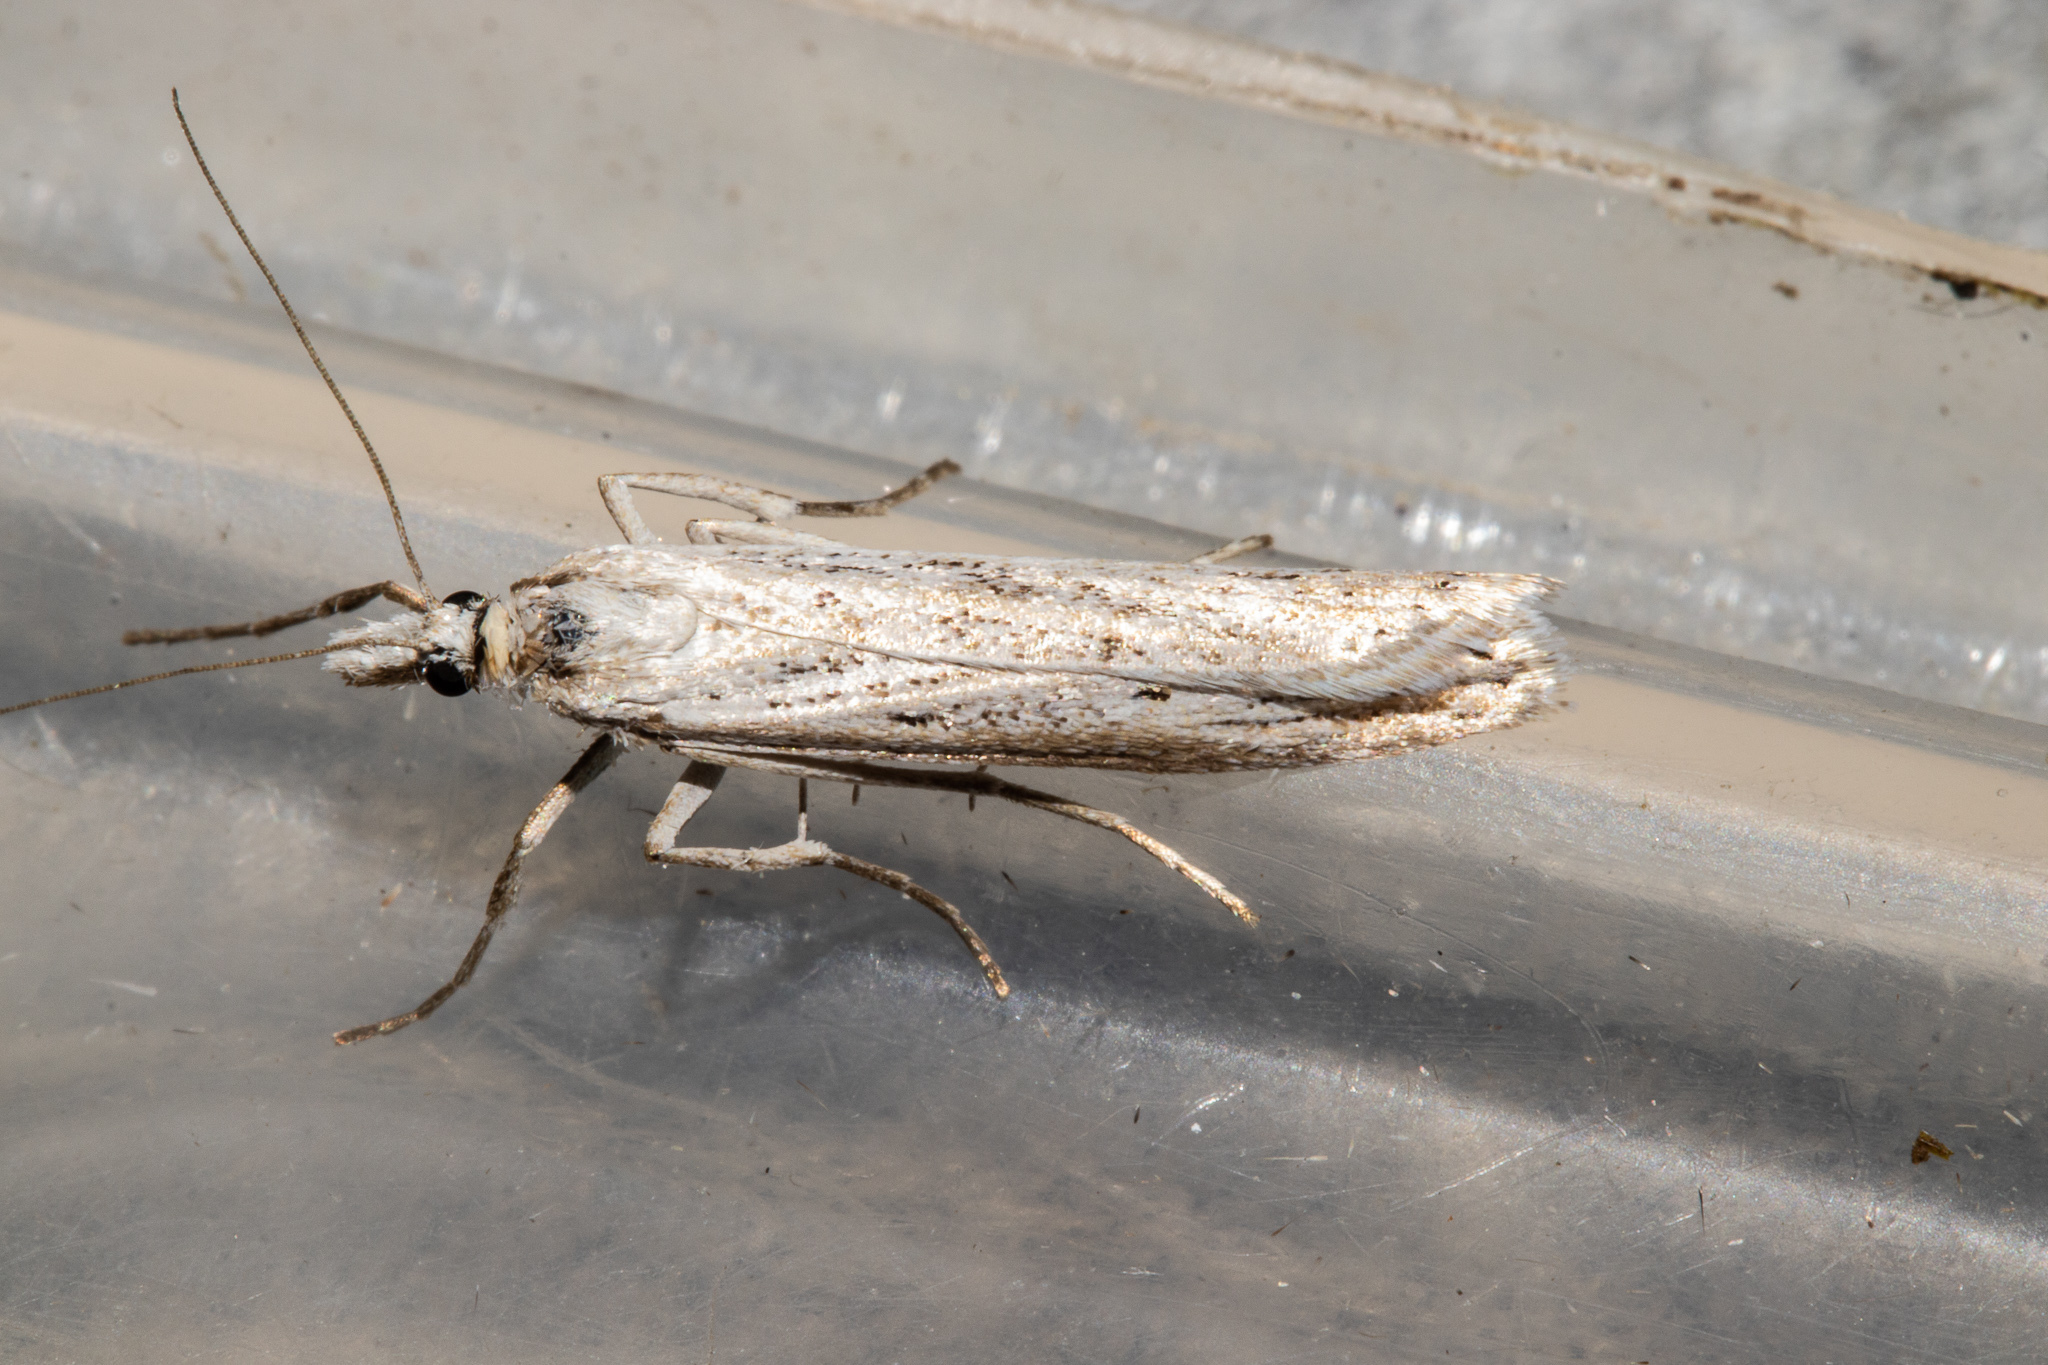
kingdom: Animalia
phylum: Arthropoda
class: Insecta
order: Lepidoptera
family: Crambidae
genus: Eudonia
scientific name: Eudonia atmogramma
